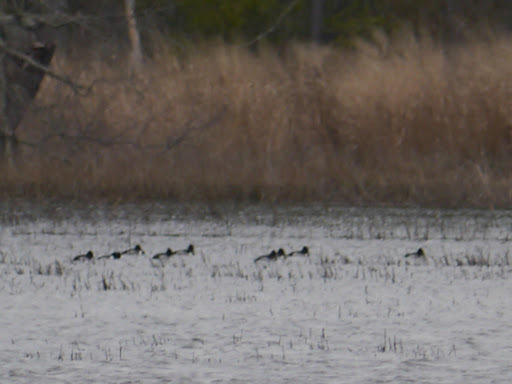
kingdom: Animalia
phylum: Chordata
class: Aves
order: Anseriformes
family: Anatidae
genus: Aythya
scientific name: Aythya collaris
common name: Ring-necked duck
